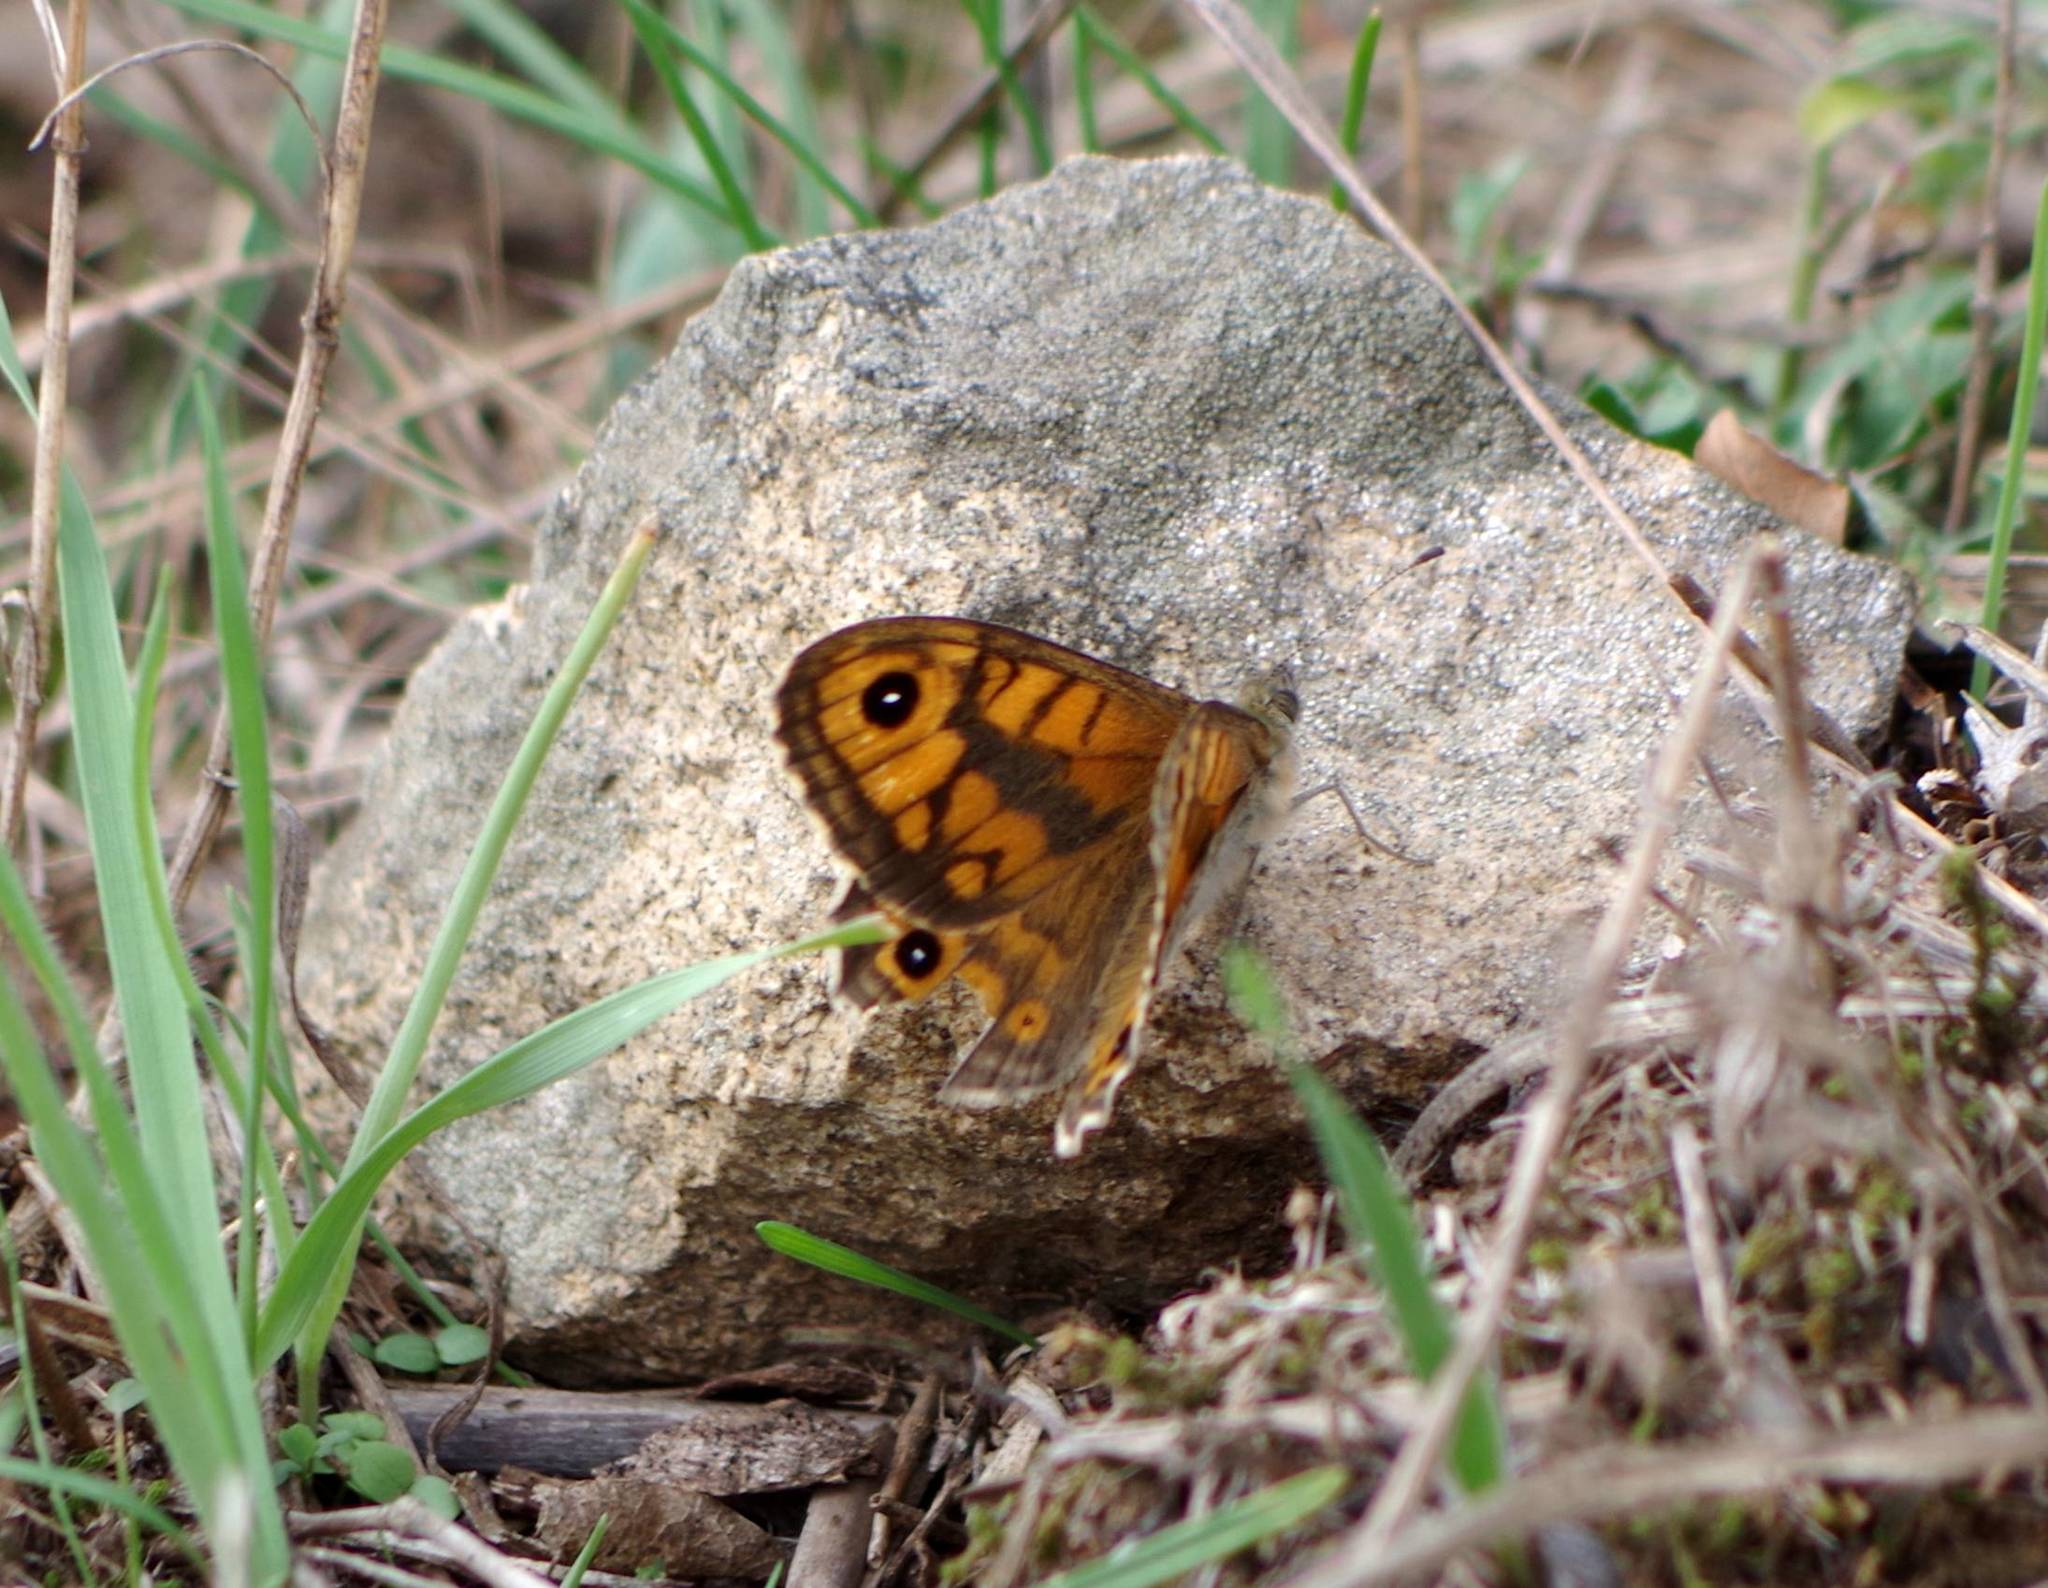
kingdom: Animalia
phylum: Arthropoda
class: Insecta
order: Lepidoptera
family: Nymphalidae
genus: Pararge
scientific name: Pararge Lasiommata megera
